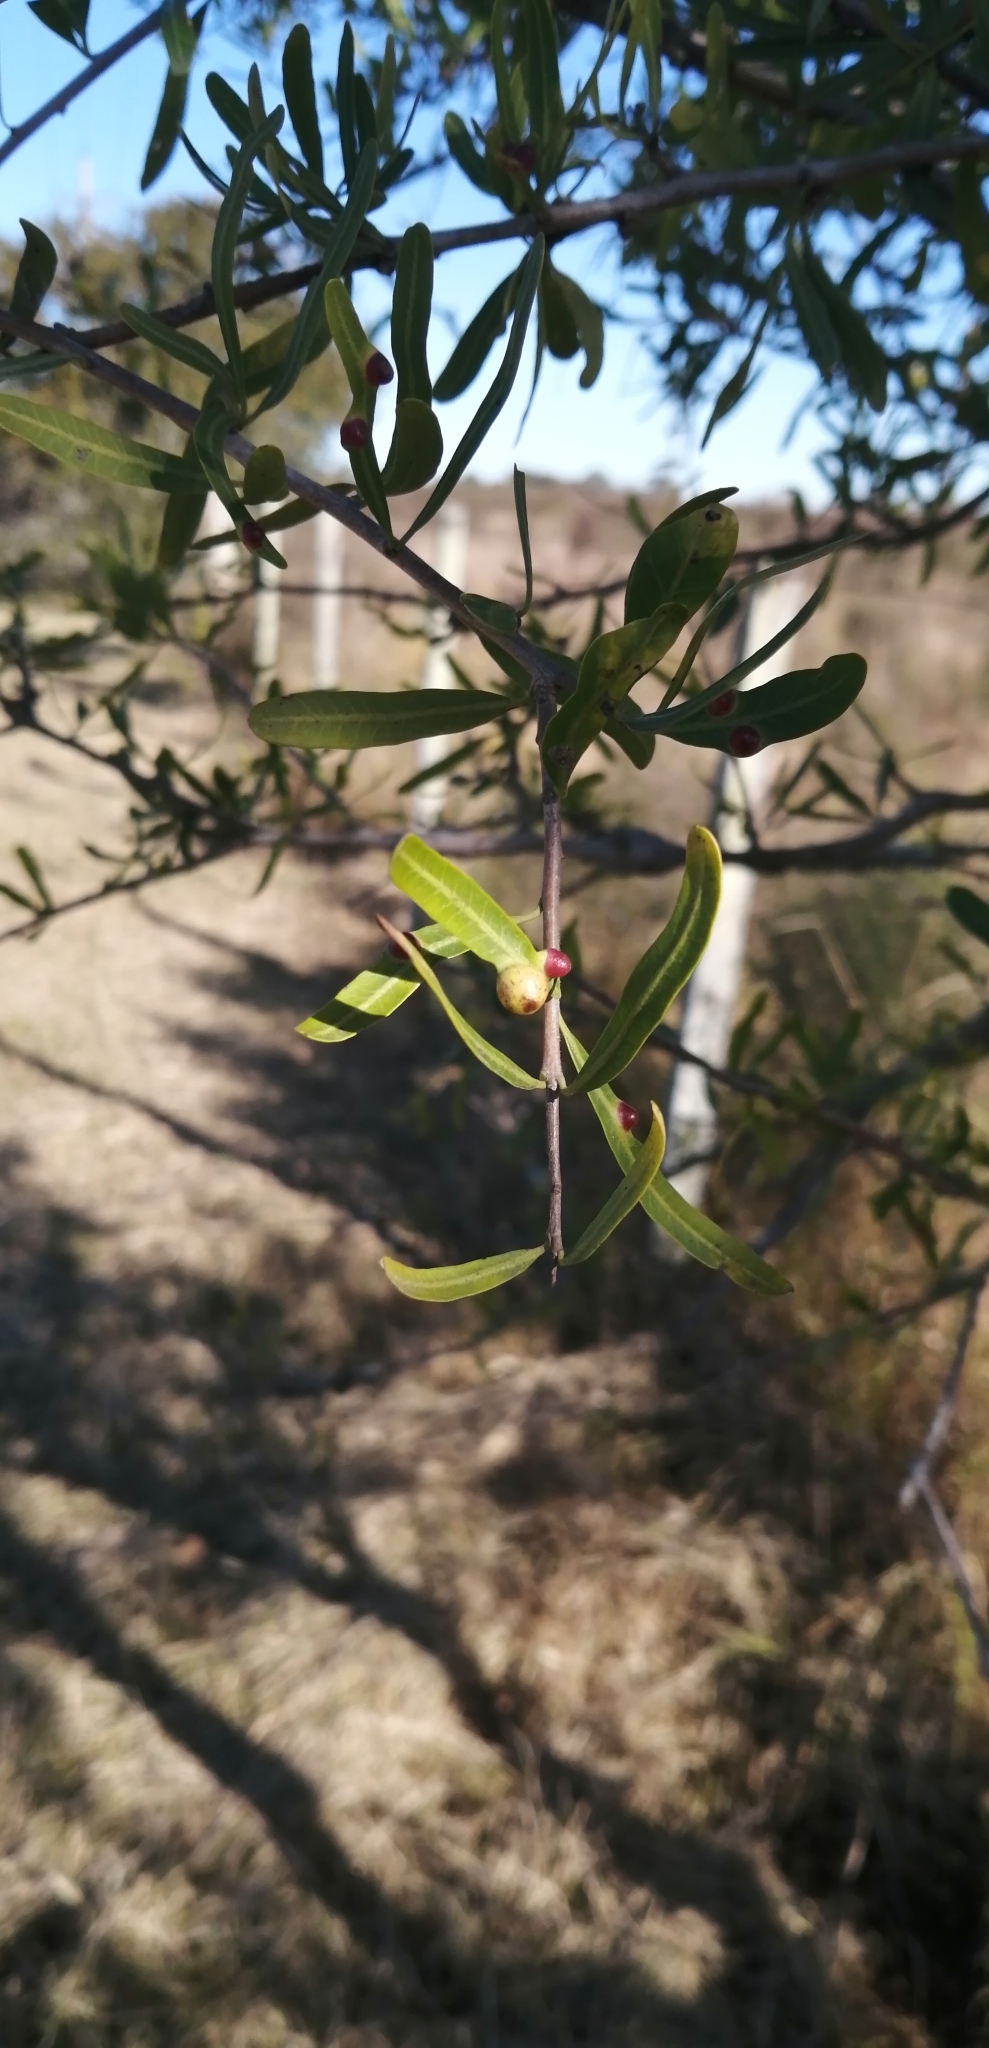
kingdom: Plantae
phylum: Tracheophyta
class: Magnoliopsida
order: Sapindales
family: Anacardiaceae
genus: Schinus
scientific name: Schinus longifolia
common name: Longleaf peppertree
